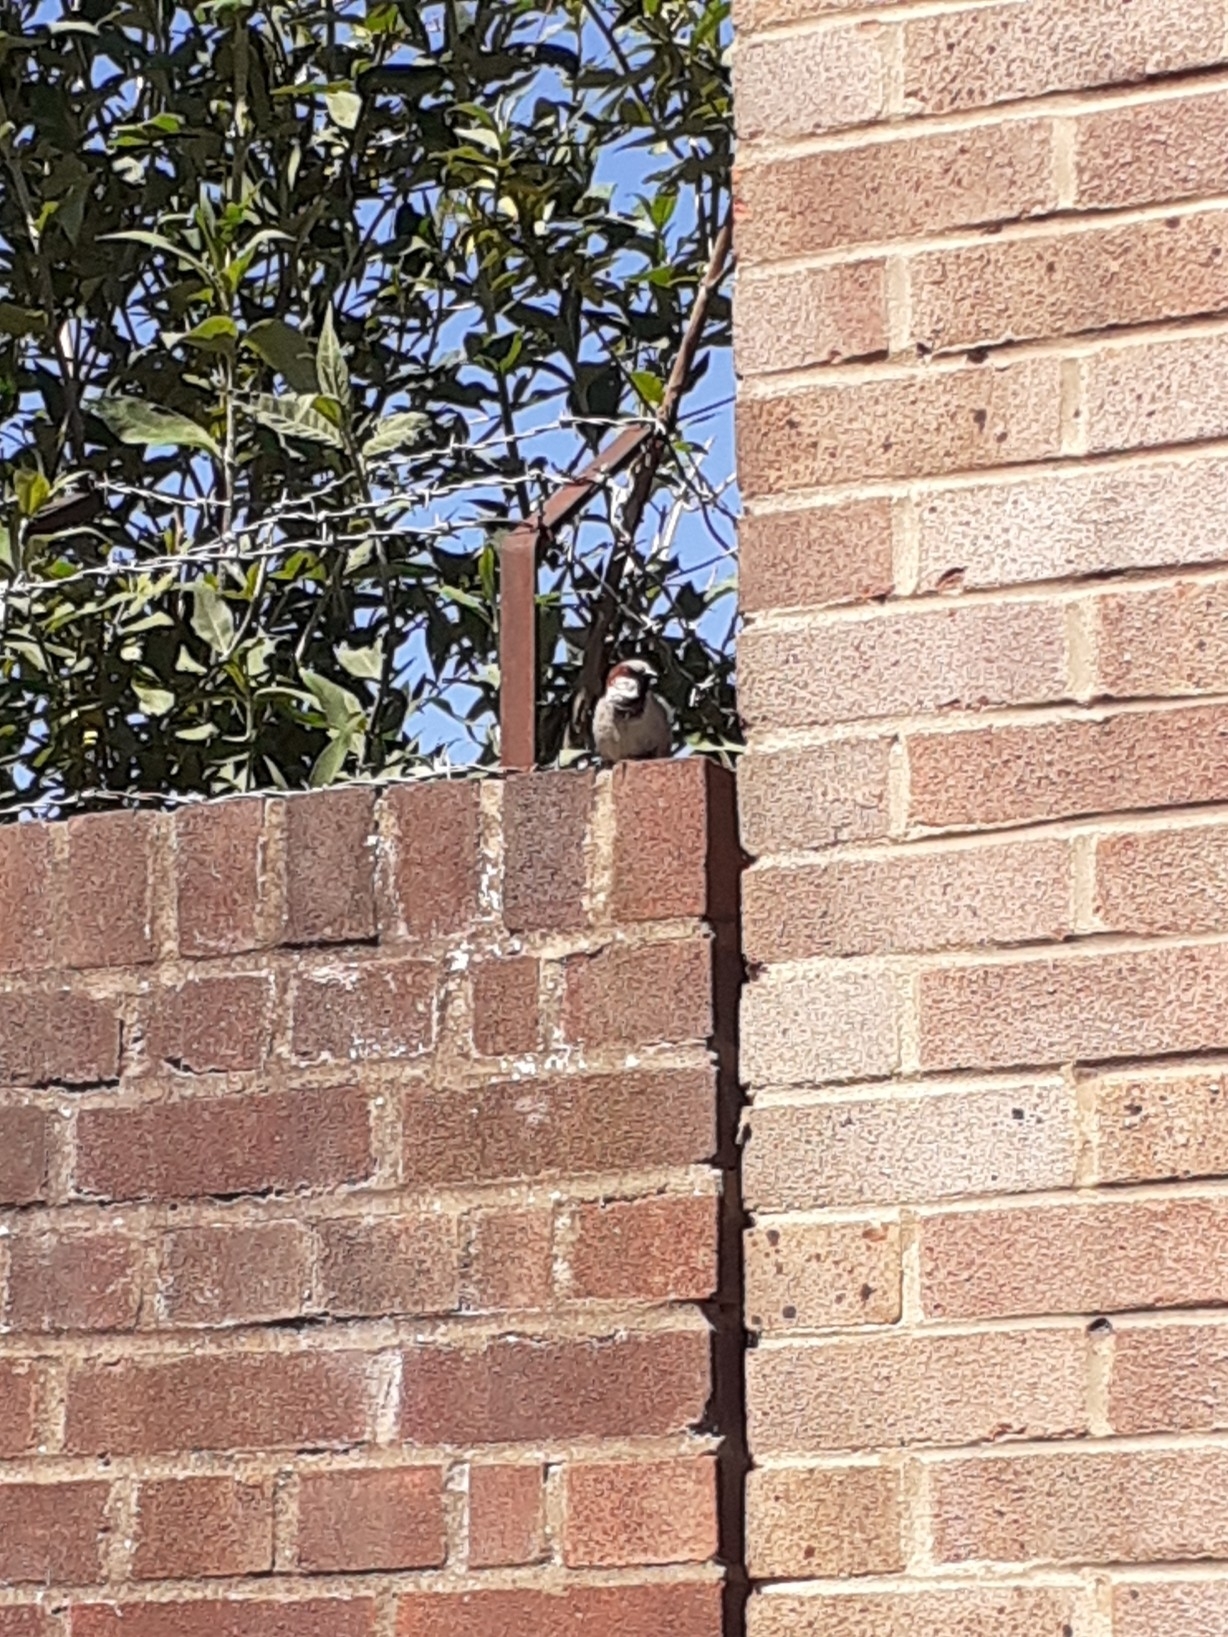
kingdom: Animalia
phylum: Chordata
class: Aves
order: Passeriformes
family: Passeridae
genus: Passer
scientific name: Passer domesticus
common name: House sparrow
